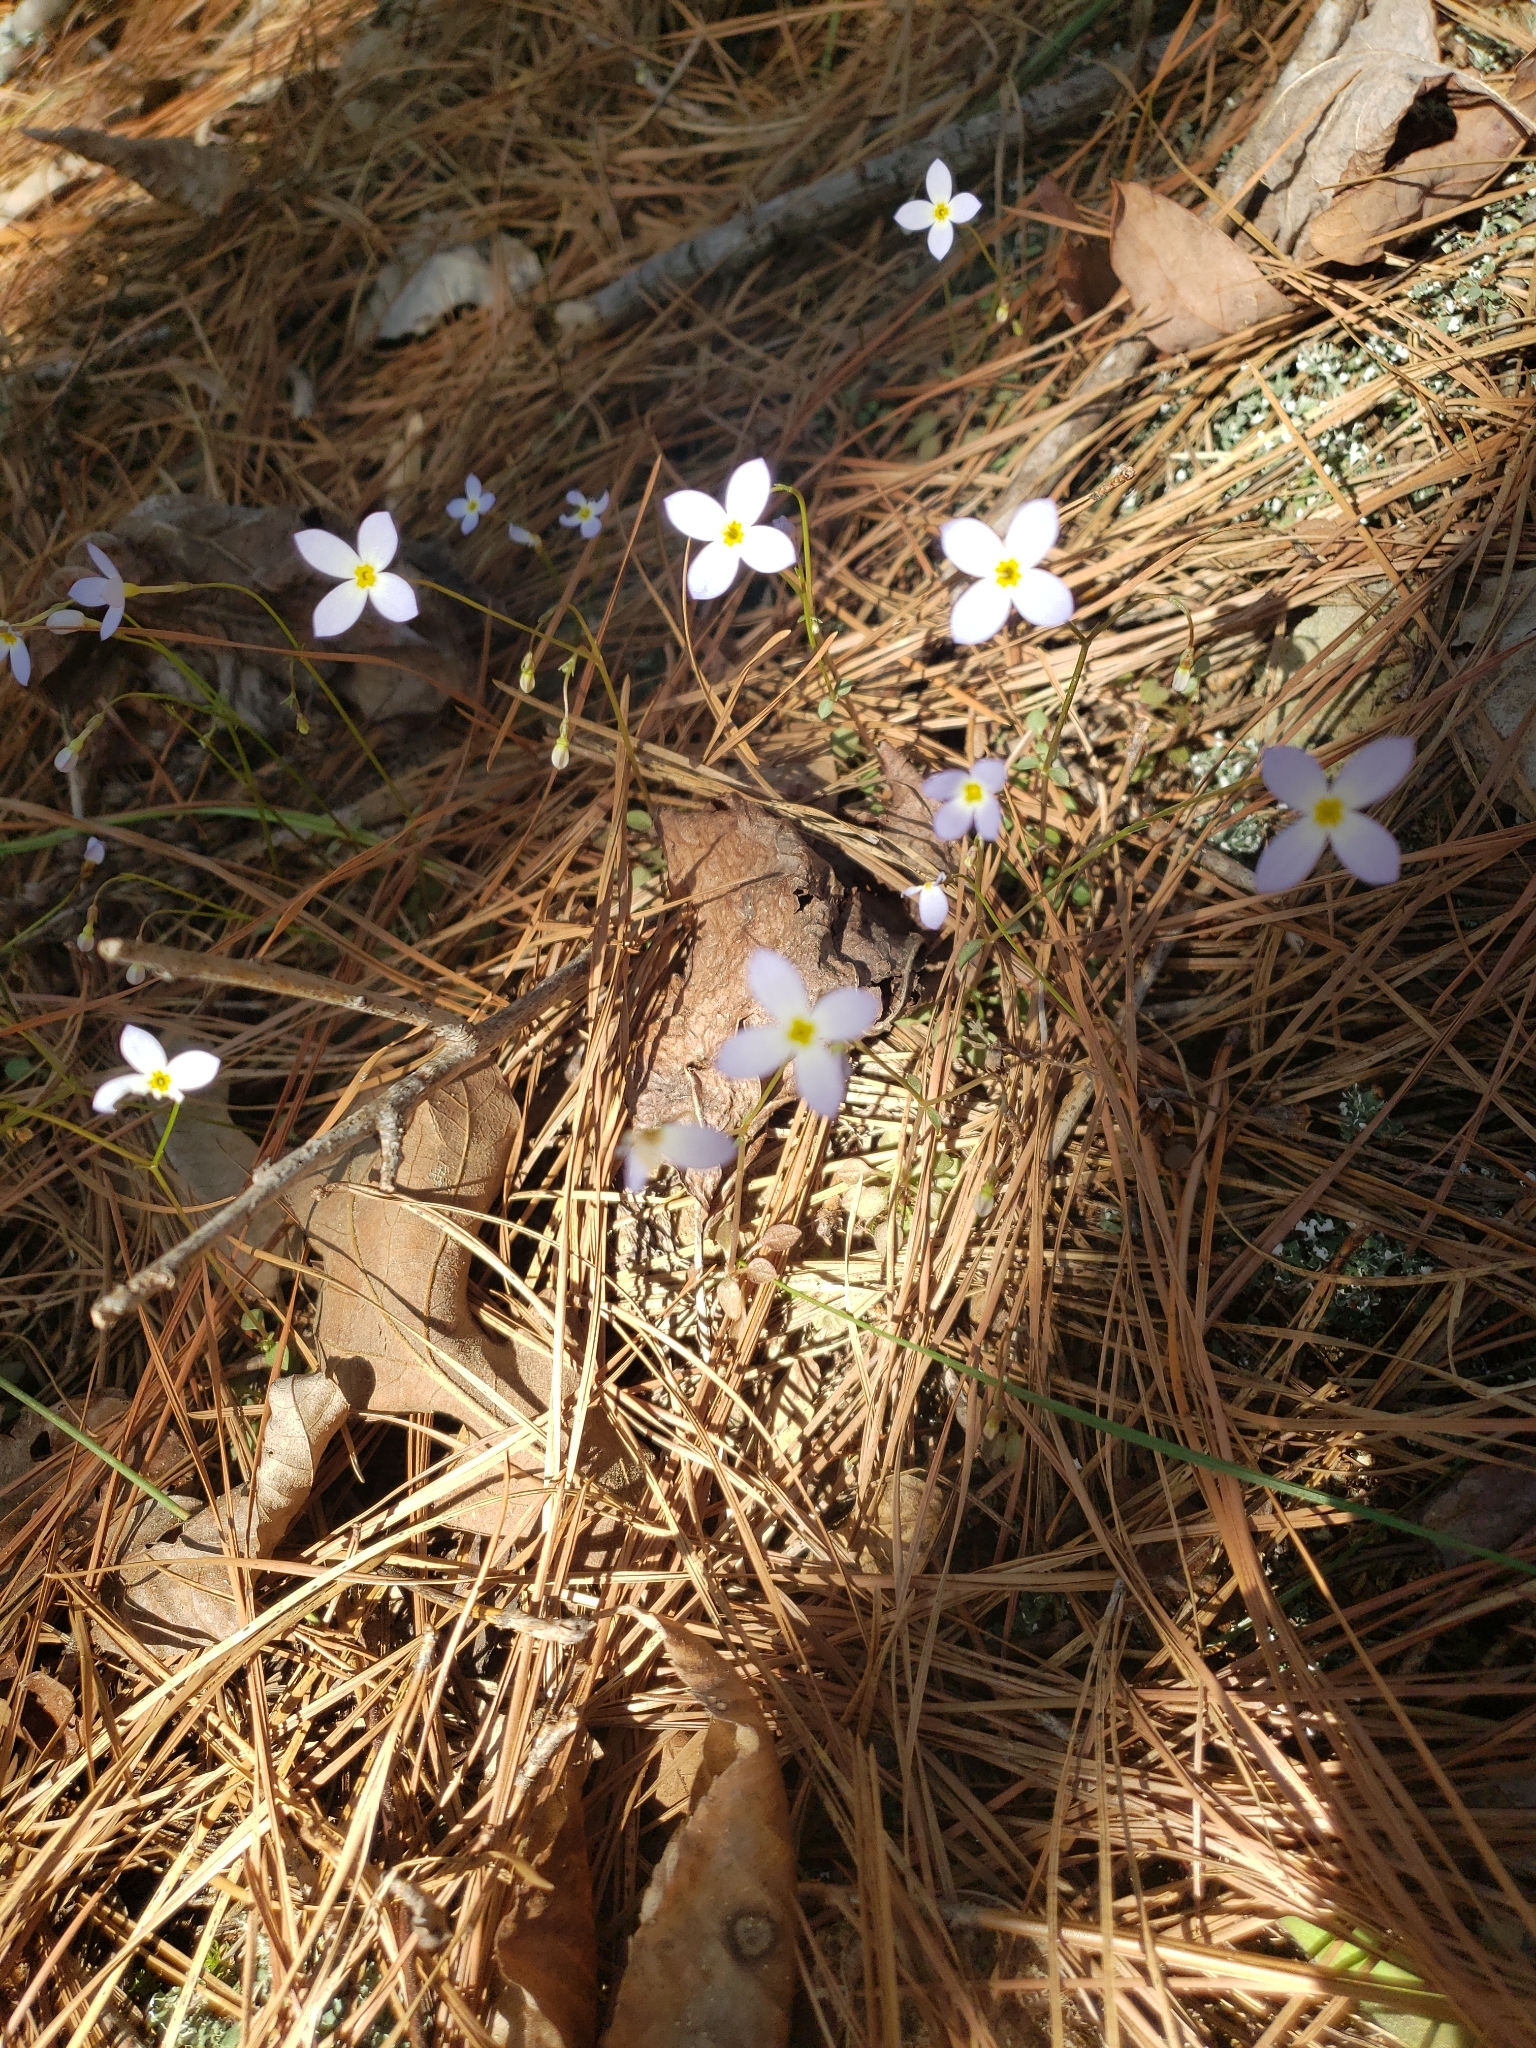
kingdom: Plantae
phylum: Tracheophyta
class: Magnoliopsida
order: Gentianales
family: Rubiaceae
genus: Houstonia
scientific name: Houstonia caerulea
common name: Bluets
